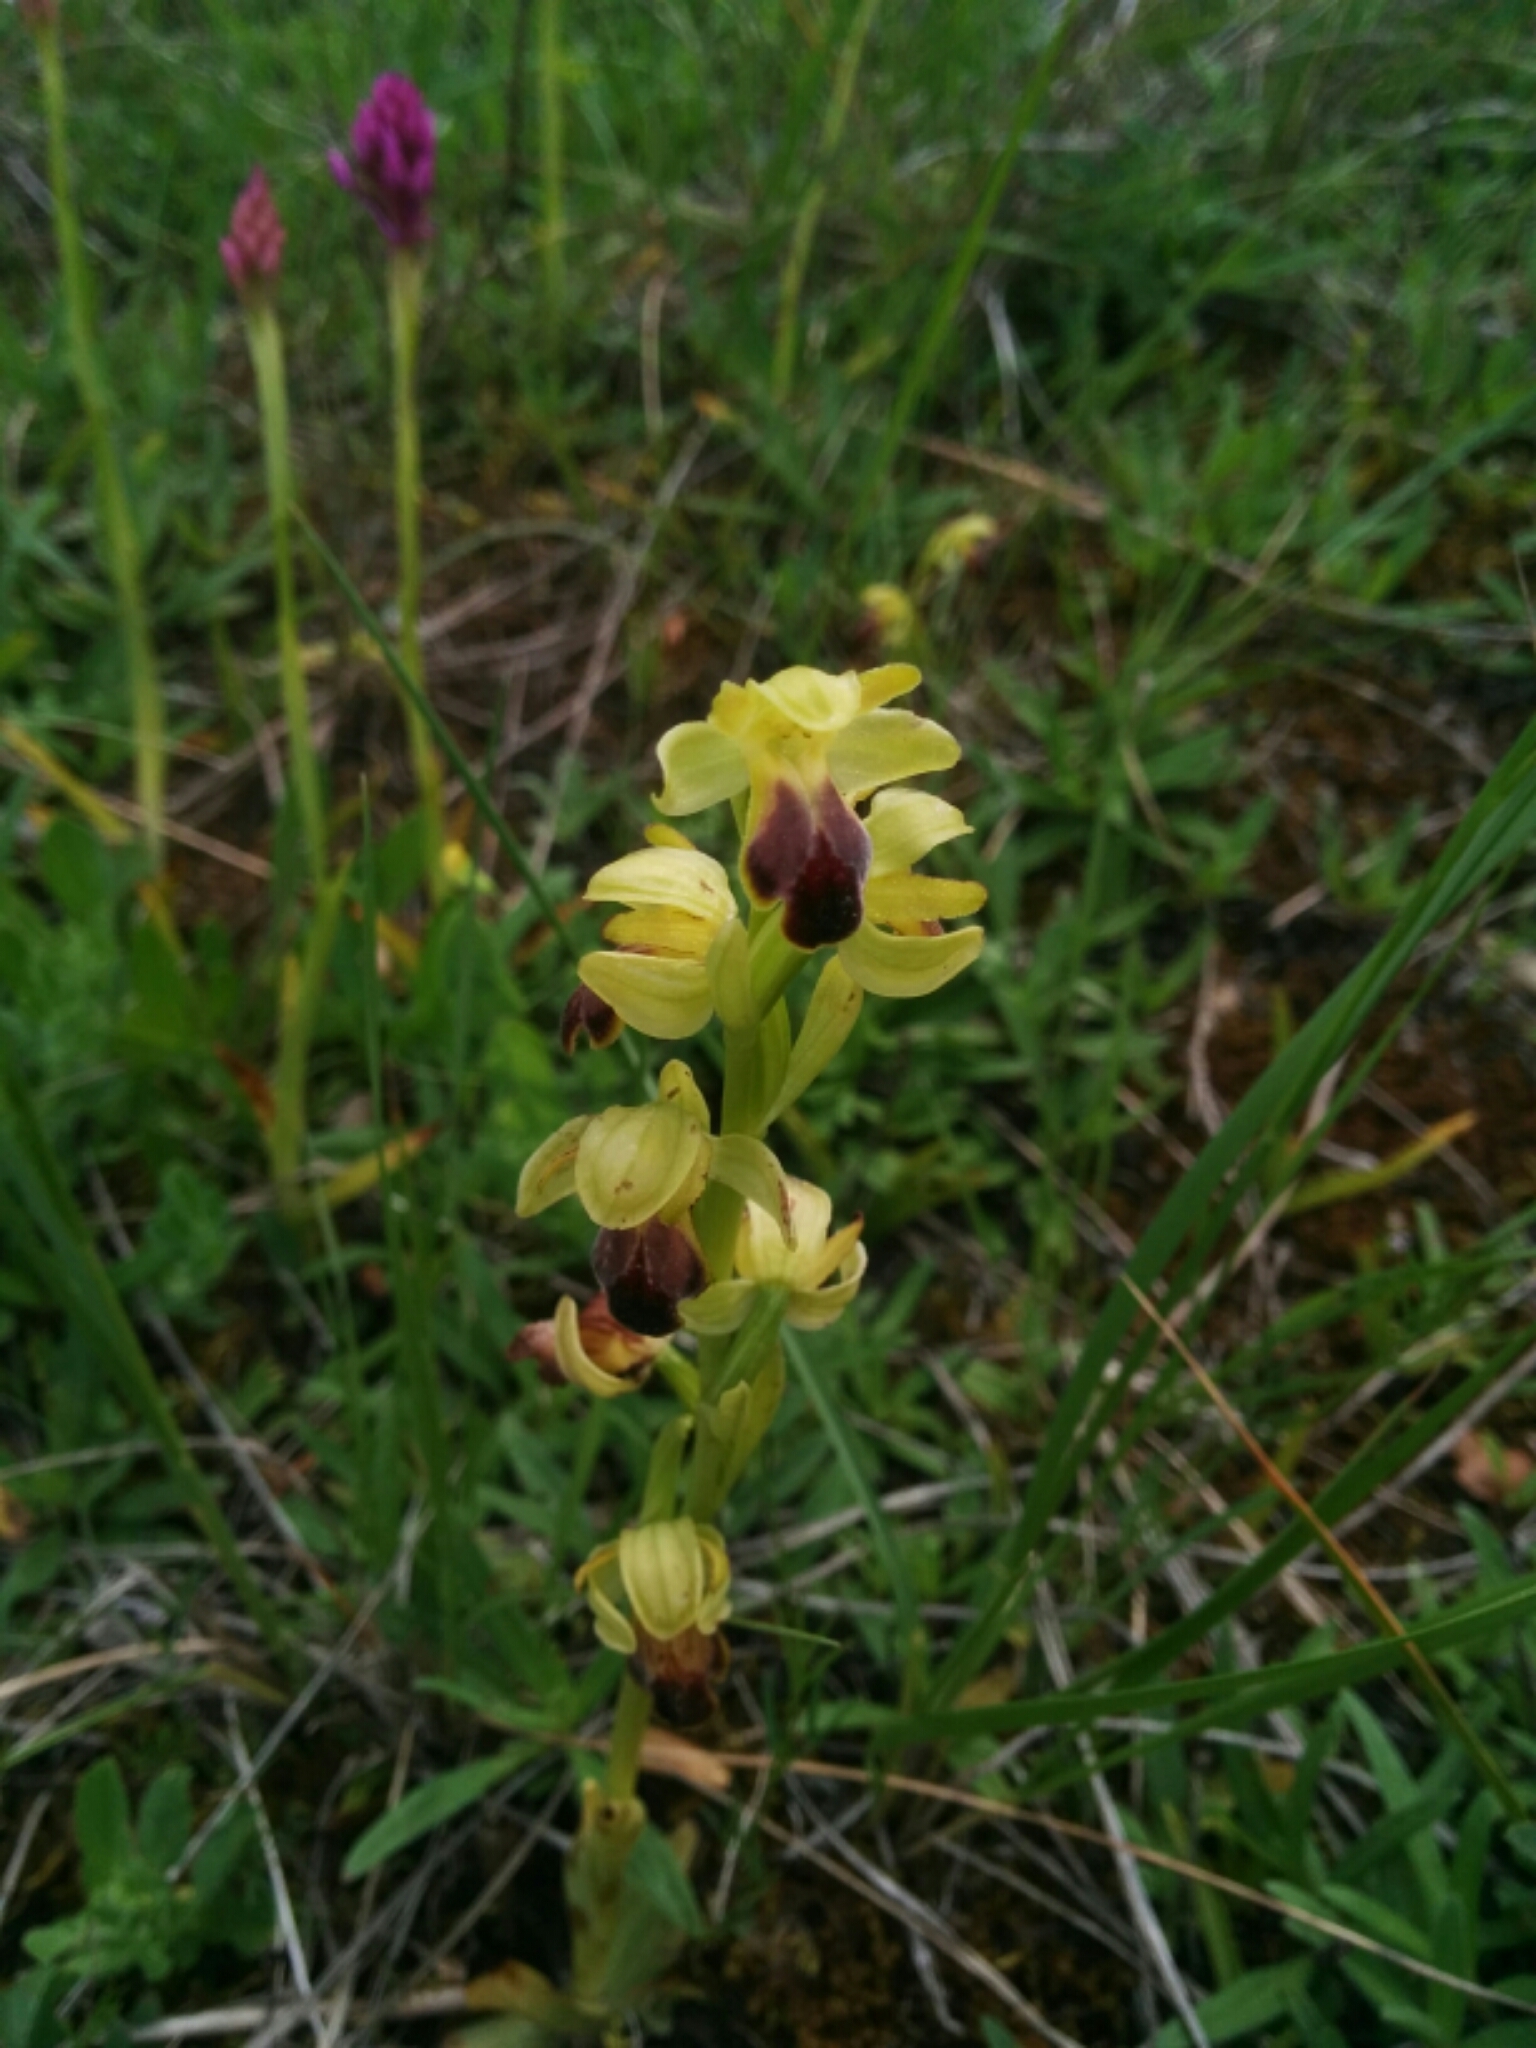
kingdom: Plantae
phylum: Tracheophyta
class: Liliopsida
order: Asparagales
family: Orchidaceae
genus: Ophrys
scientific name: Ophrys fusca
